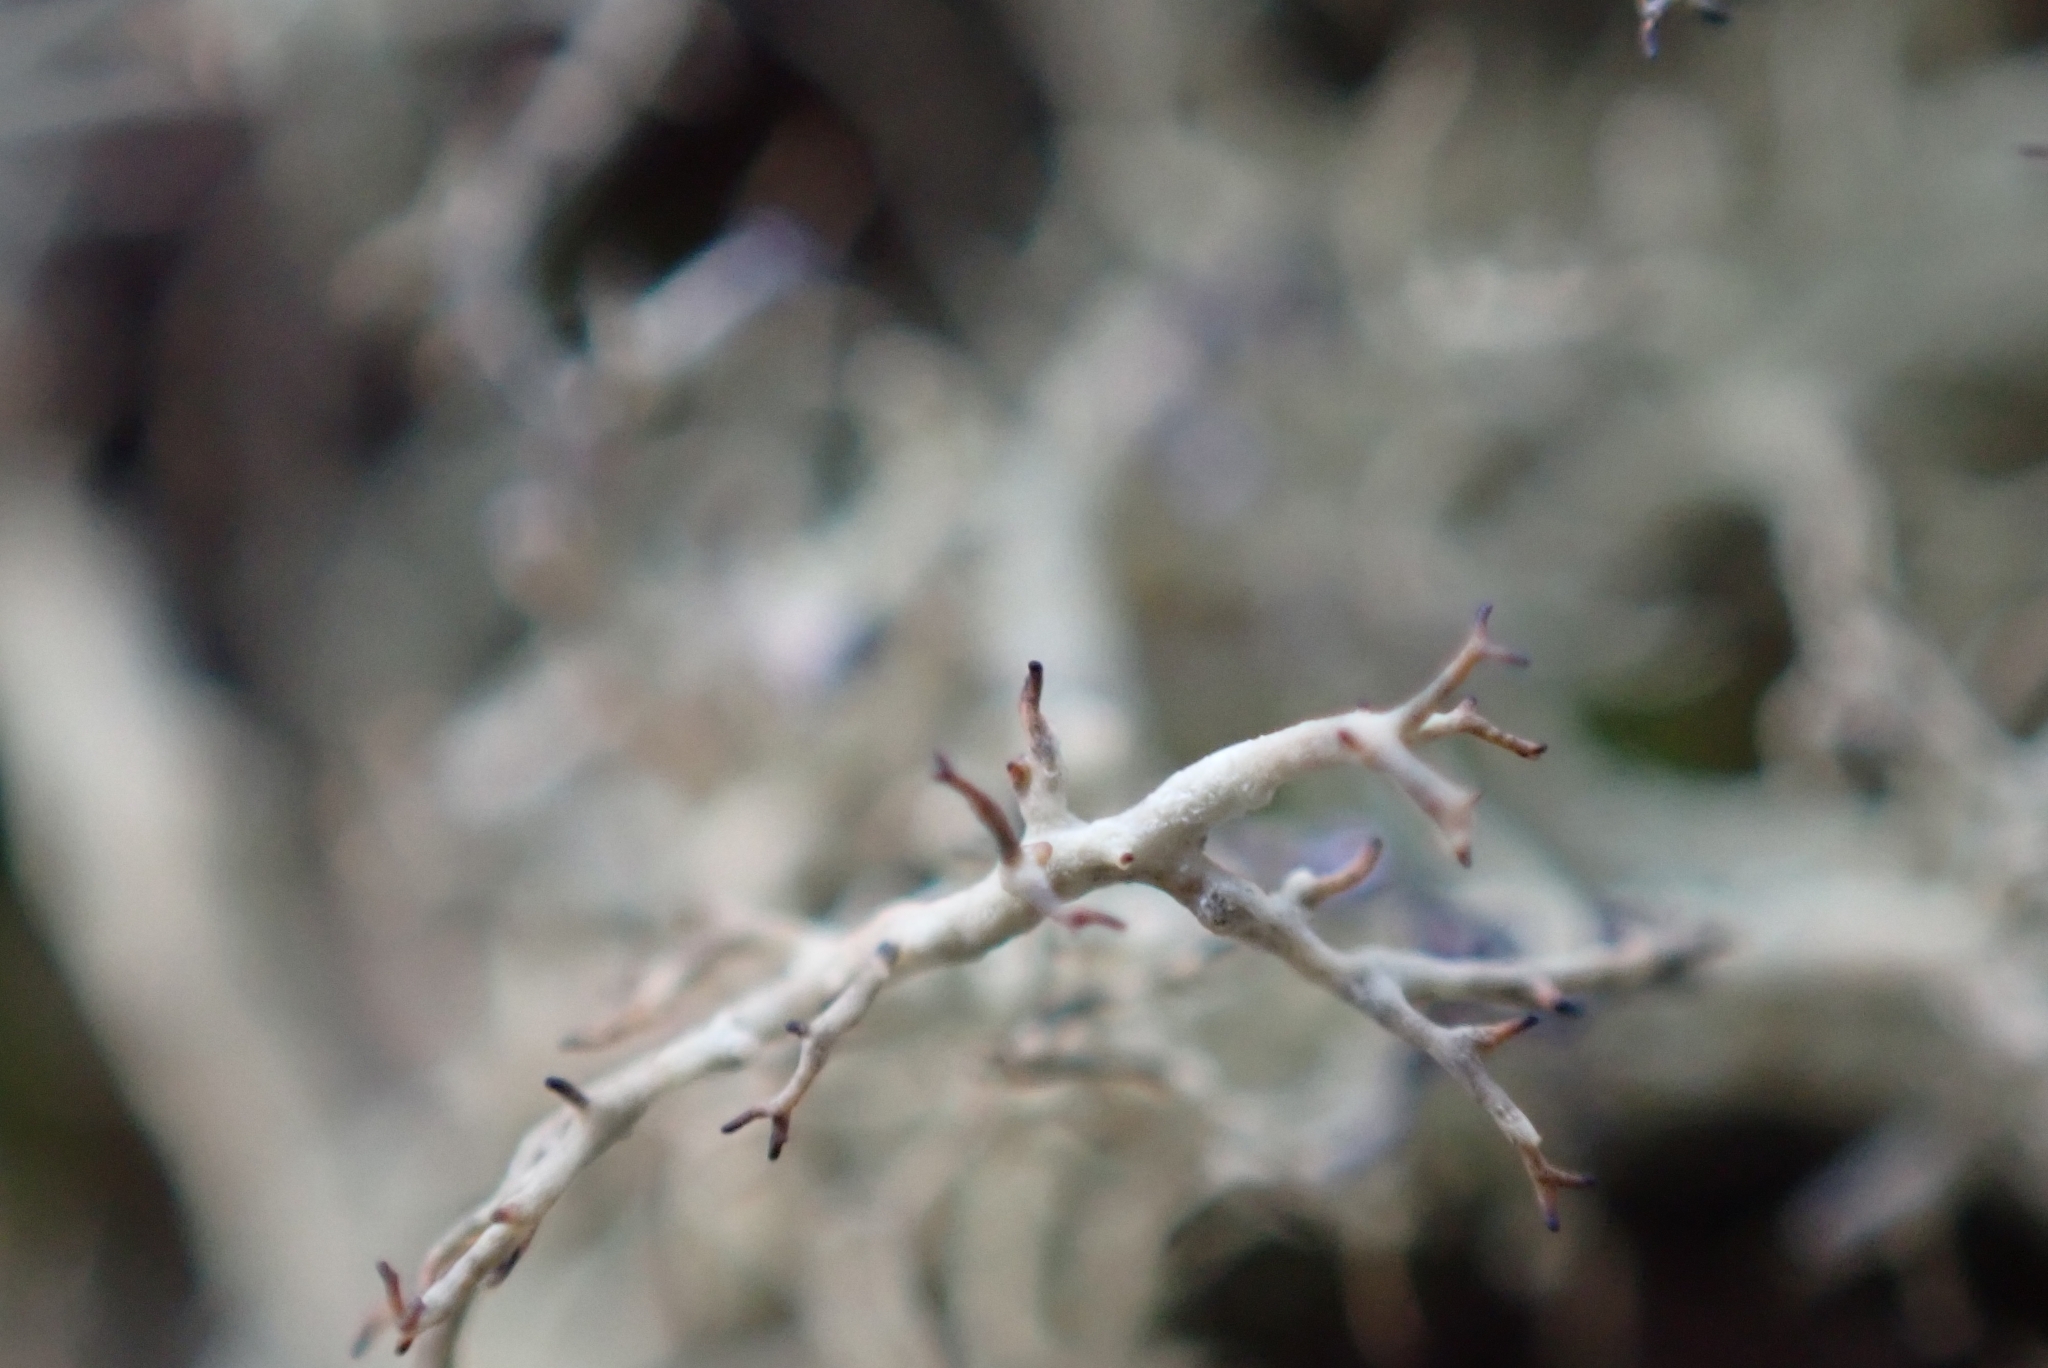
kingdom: Fungi
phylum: Ascomycota
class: Lecanoromycetes
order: Lecanorales
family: Parmeliaceae
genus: Alectoria
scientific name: Alectoria ochroleuca
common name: Alpine sulphur-tresses
